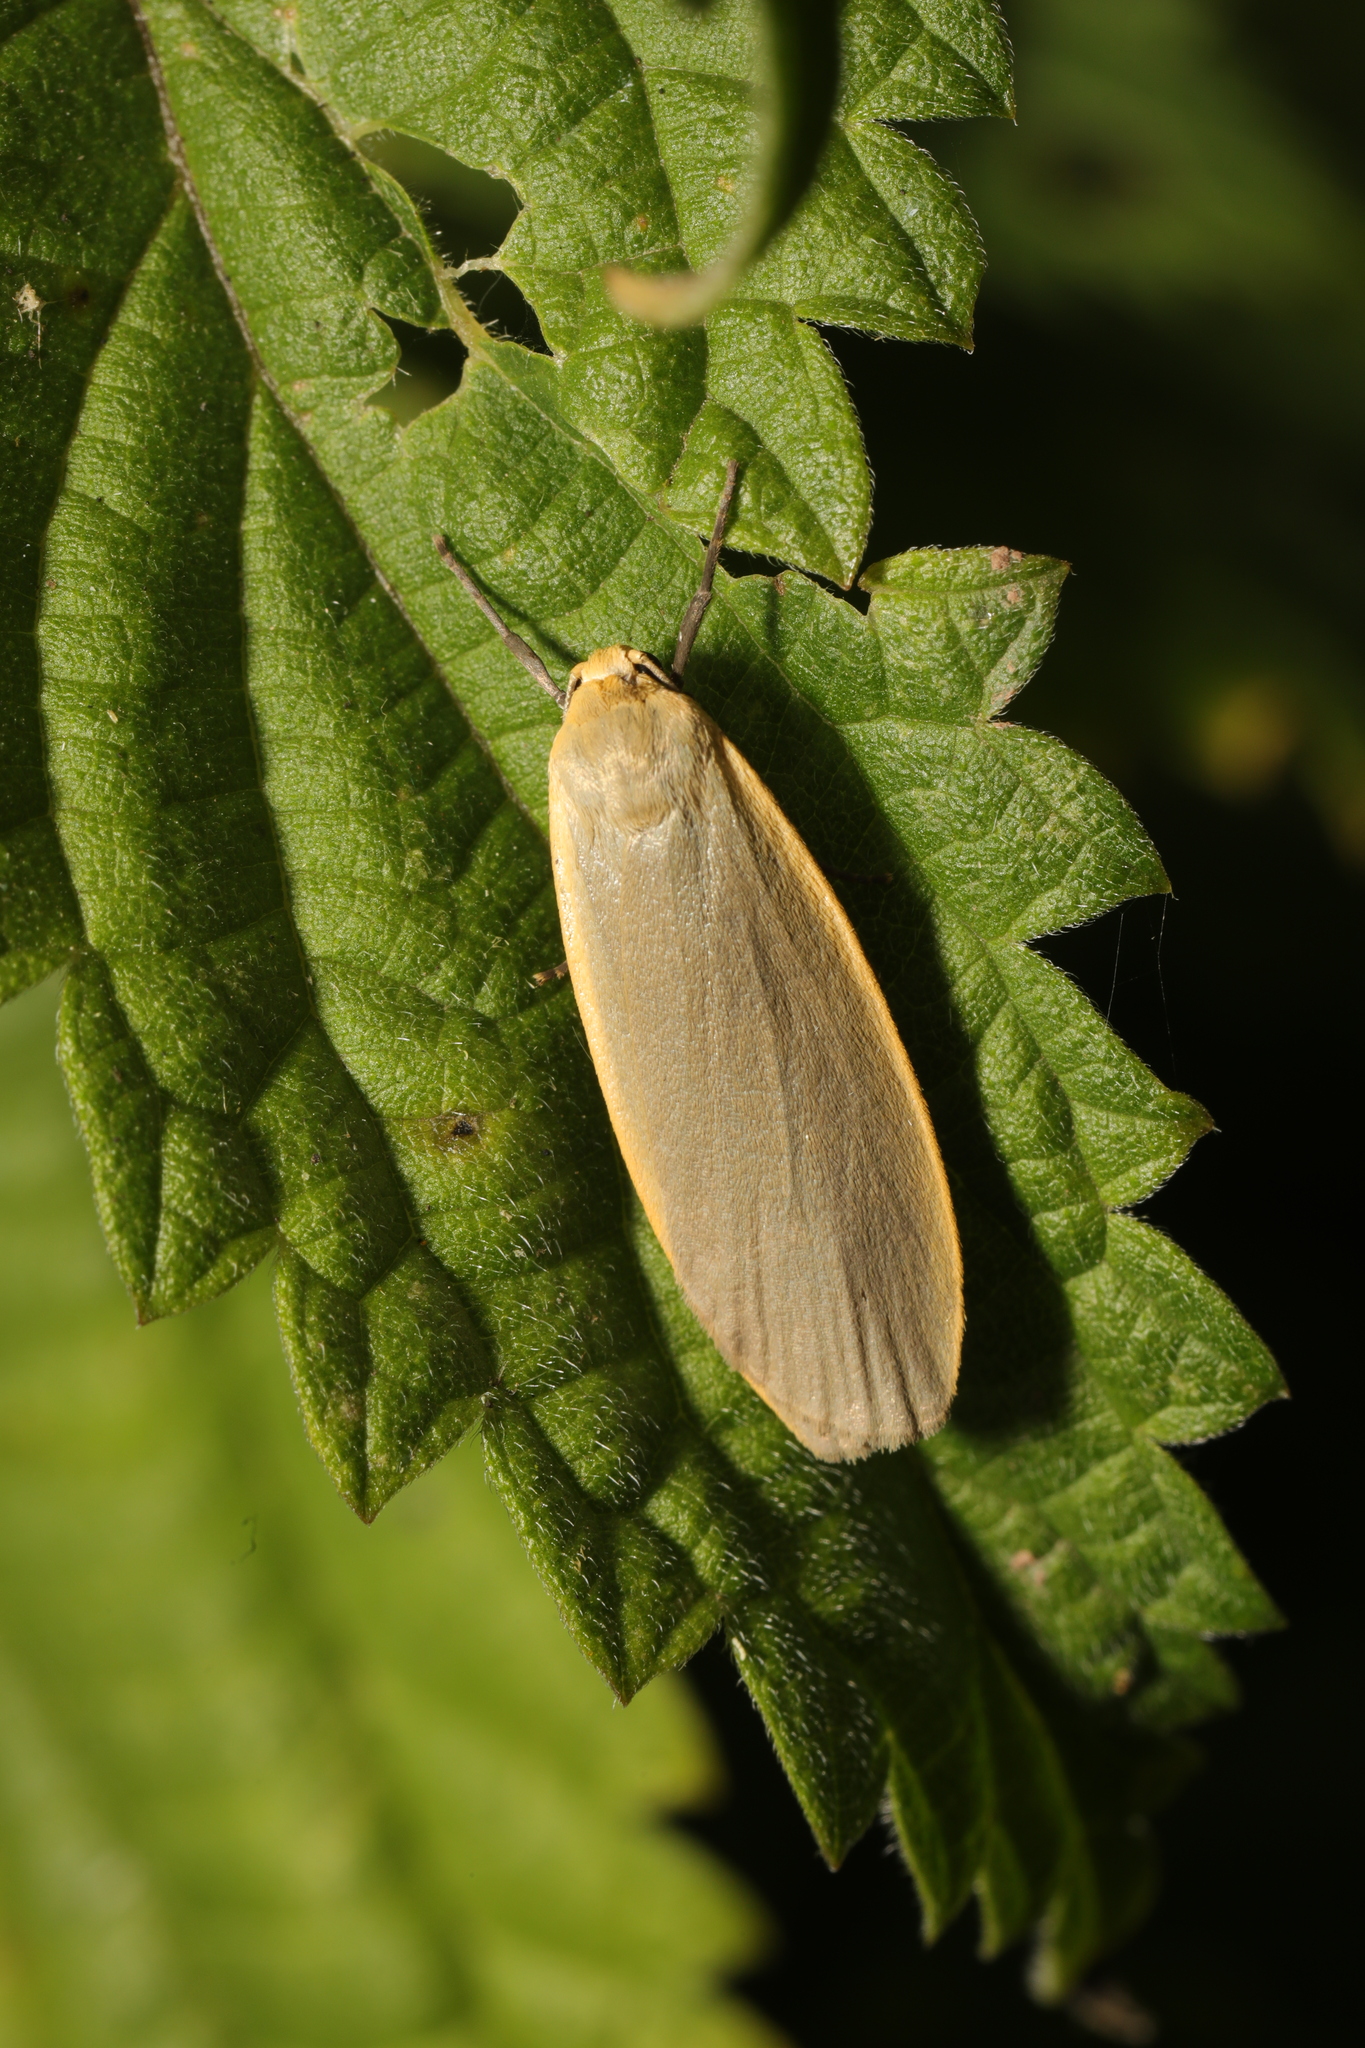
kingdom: Animalia
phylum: Arthropoda
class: Insecta
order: Lepidoptera
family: Erebidae
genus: Collita
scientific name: Collita griseola
